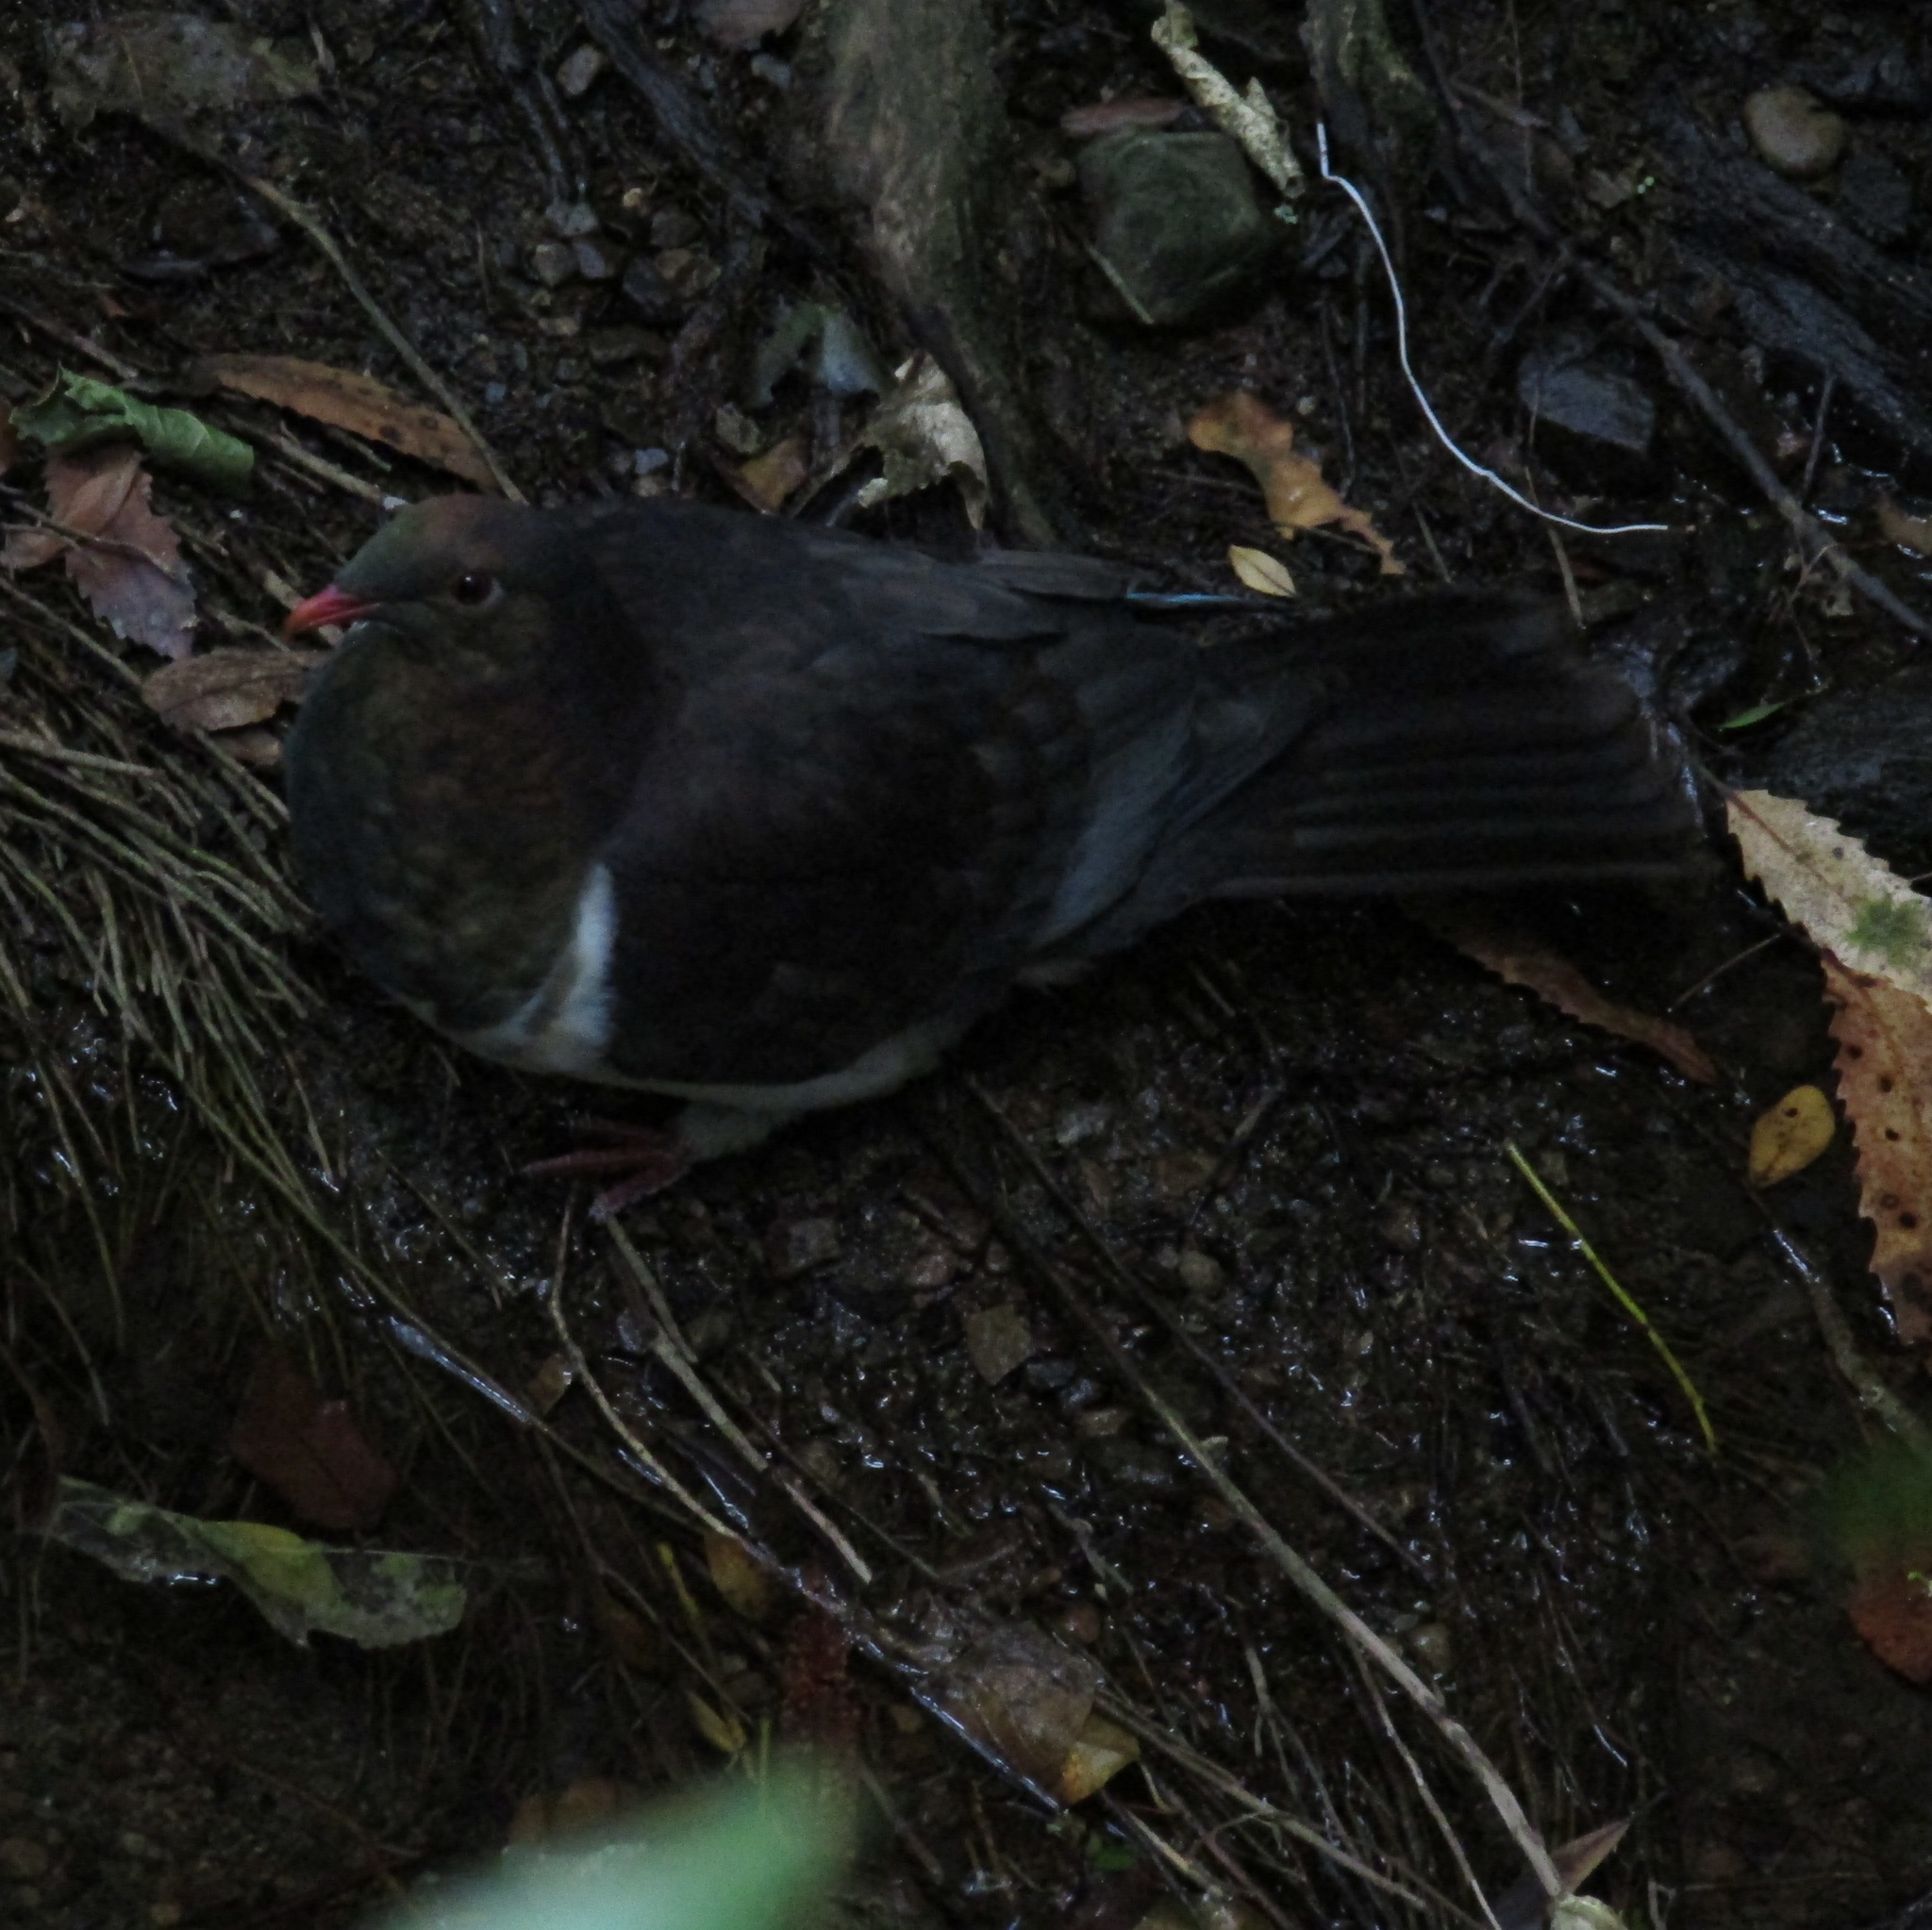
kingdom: Animalia
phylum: Chordata
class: Aves
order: Columbiformes
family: Columbidae
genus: Hemiphaga
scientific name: Hemiphaga novaeseelandiae
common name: New zealand pigeon
